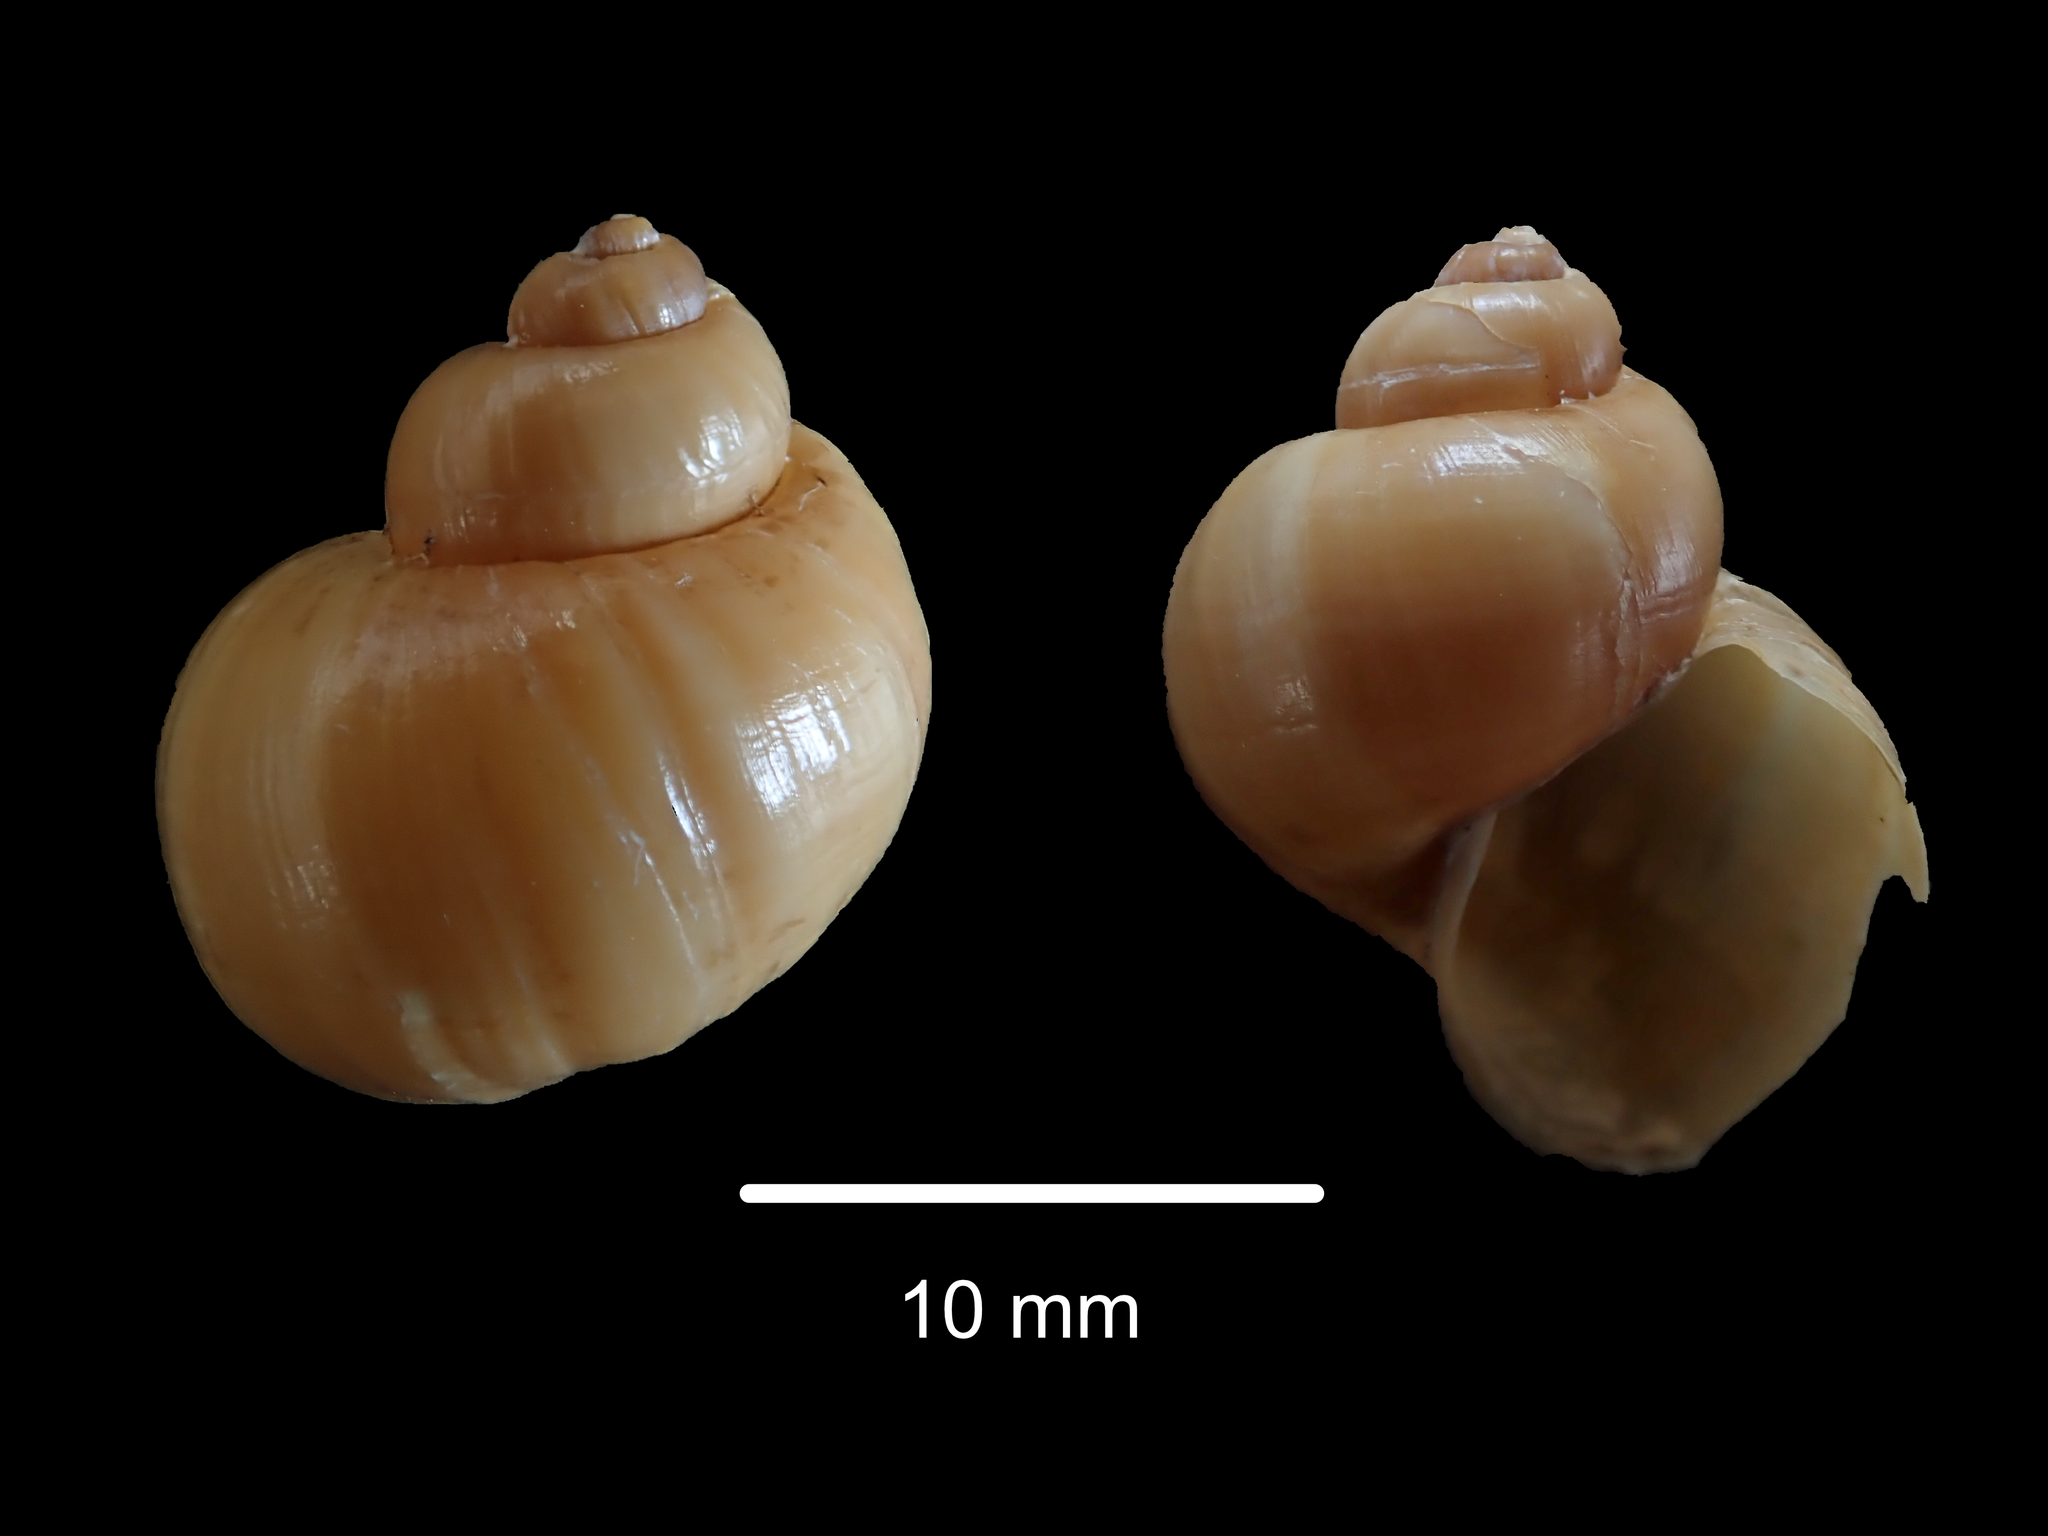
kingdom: Animalia
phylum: Mollusca
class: Gastropoda
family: Epitoniidae
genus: Recluzia
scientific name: Recluzia lutea
